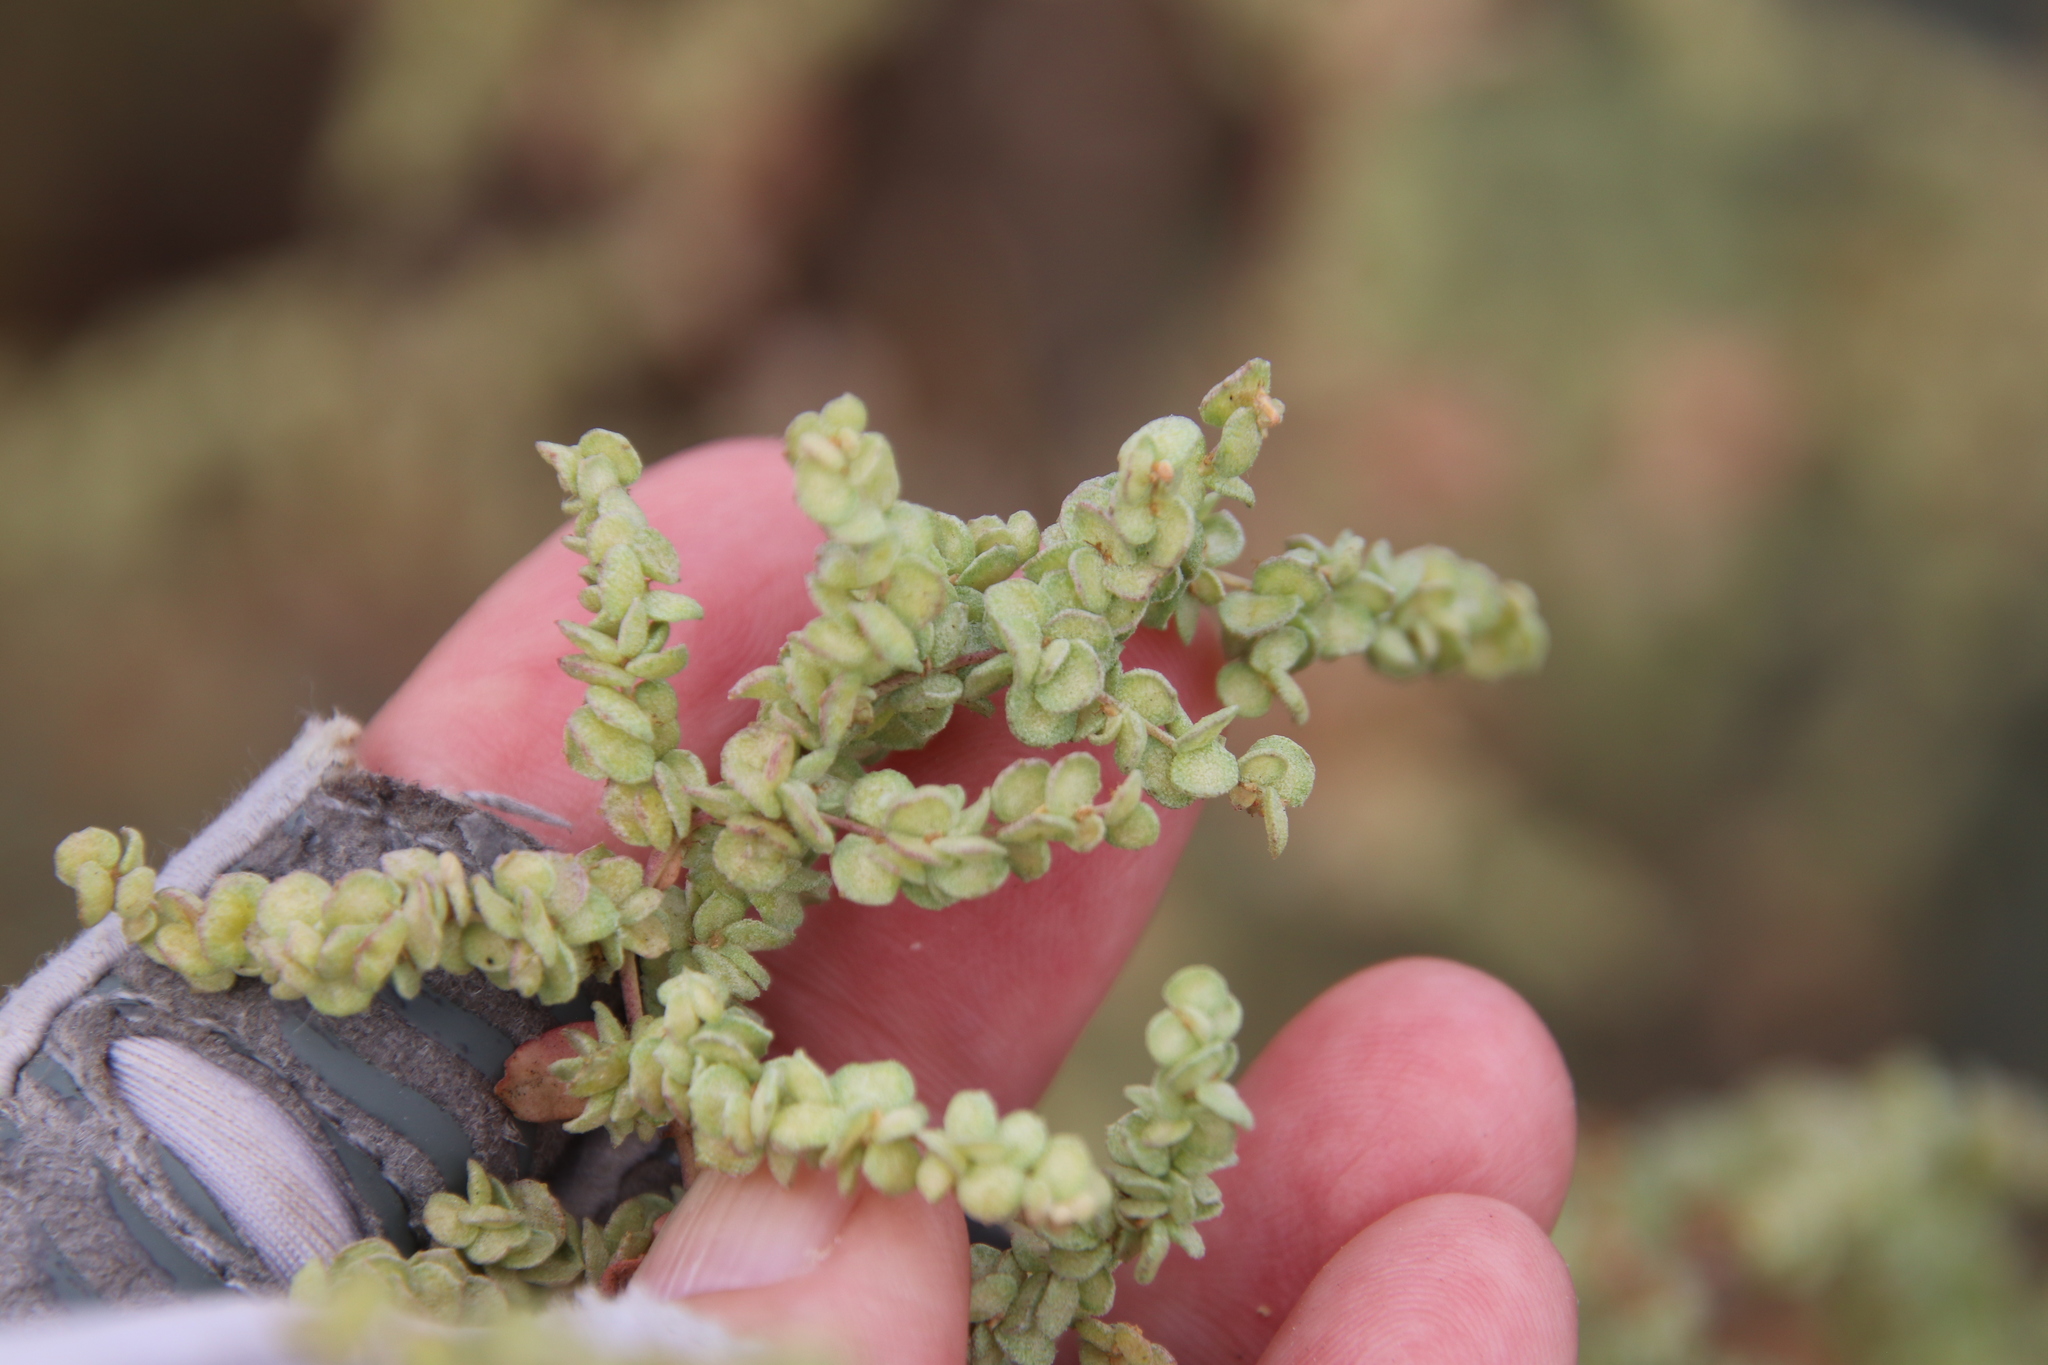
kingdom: Plantae
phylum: Tracheophyta
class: Magnoliopsida
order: Caryophyllales
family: Amaranthaceae
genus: Atriplex
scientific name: Atriplex lentiformis
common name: Big saltbush
